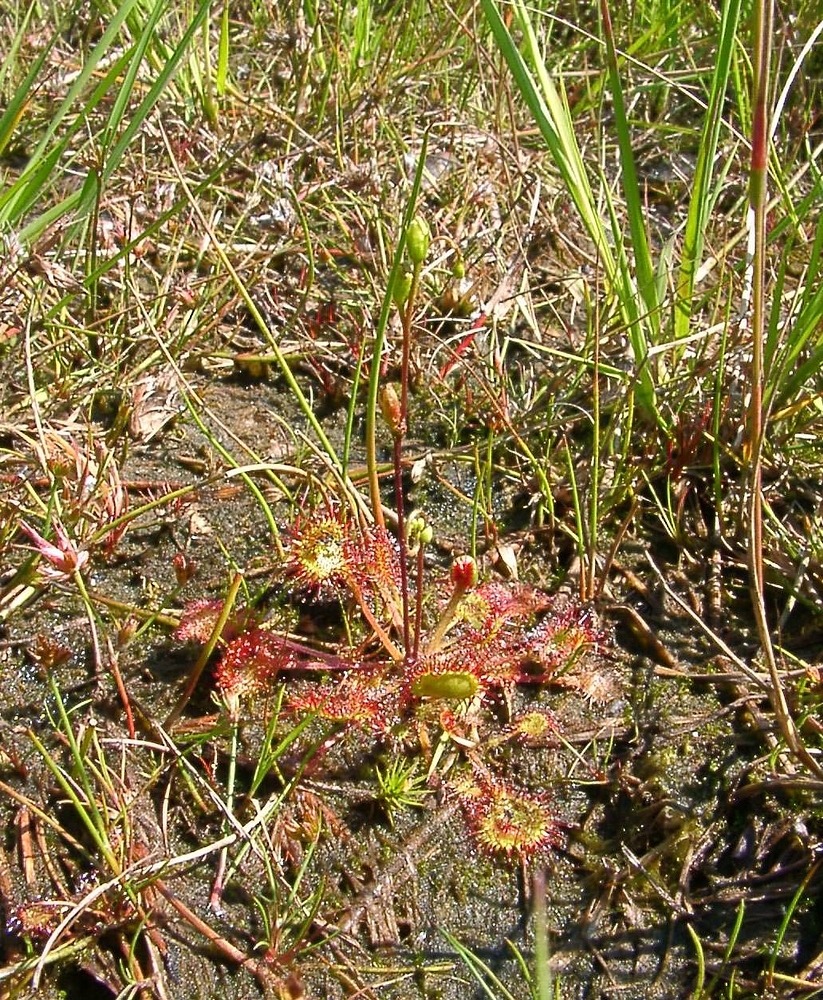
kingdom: Plantae
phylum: Tracheophyta
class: Magnoliopsida
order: Caryophyllales
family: Droseraceae
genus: Drosera
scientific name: Drosera rotundifolia
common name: Round-leaved sundew
